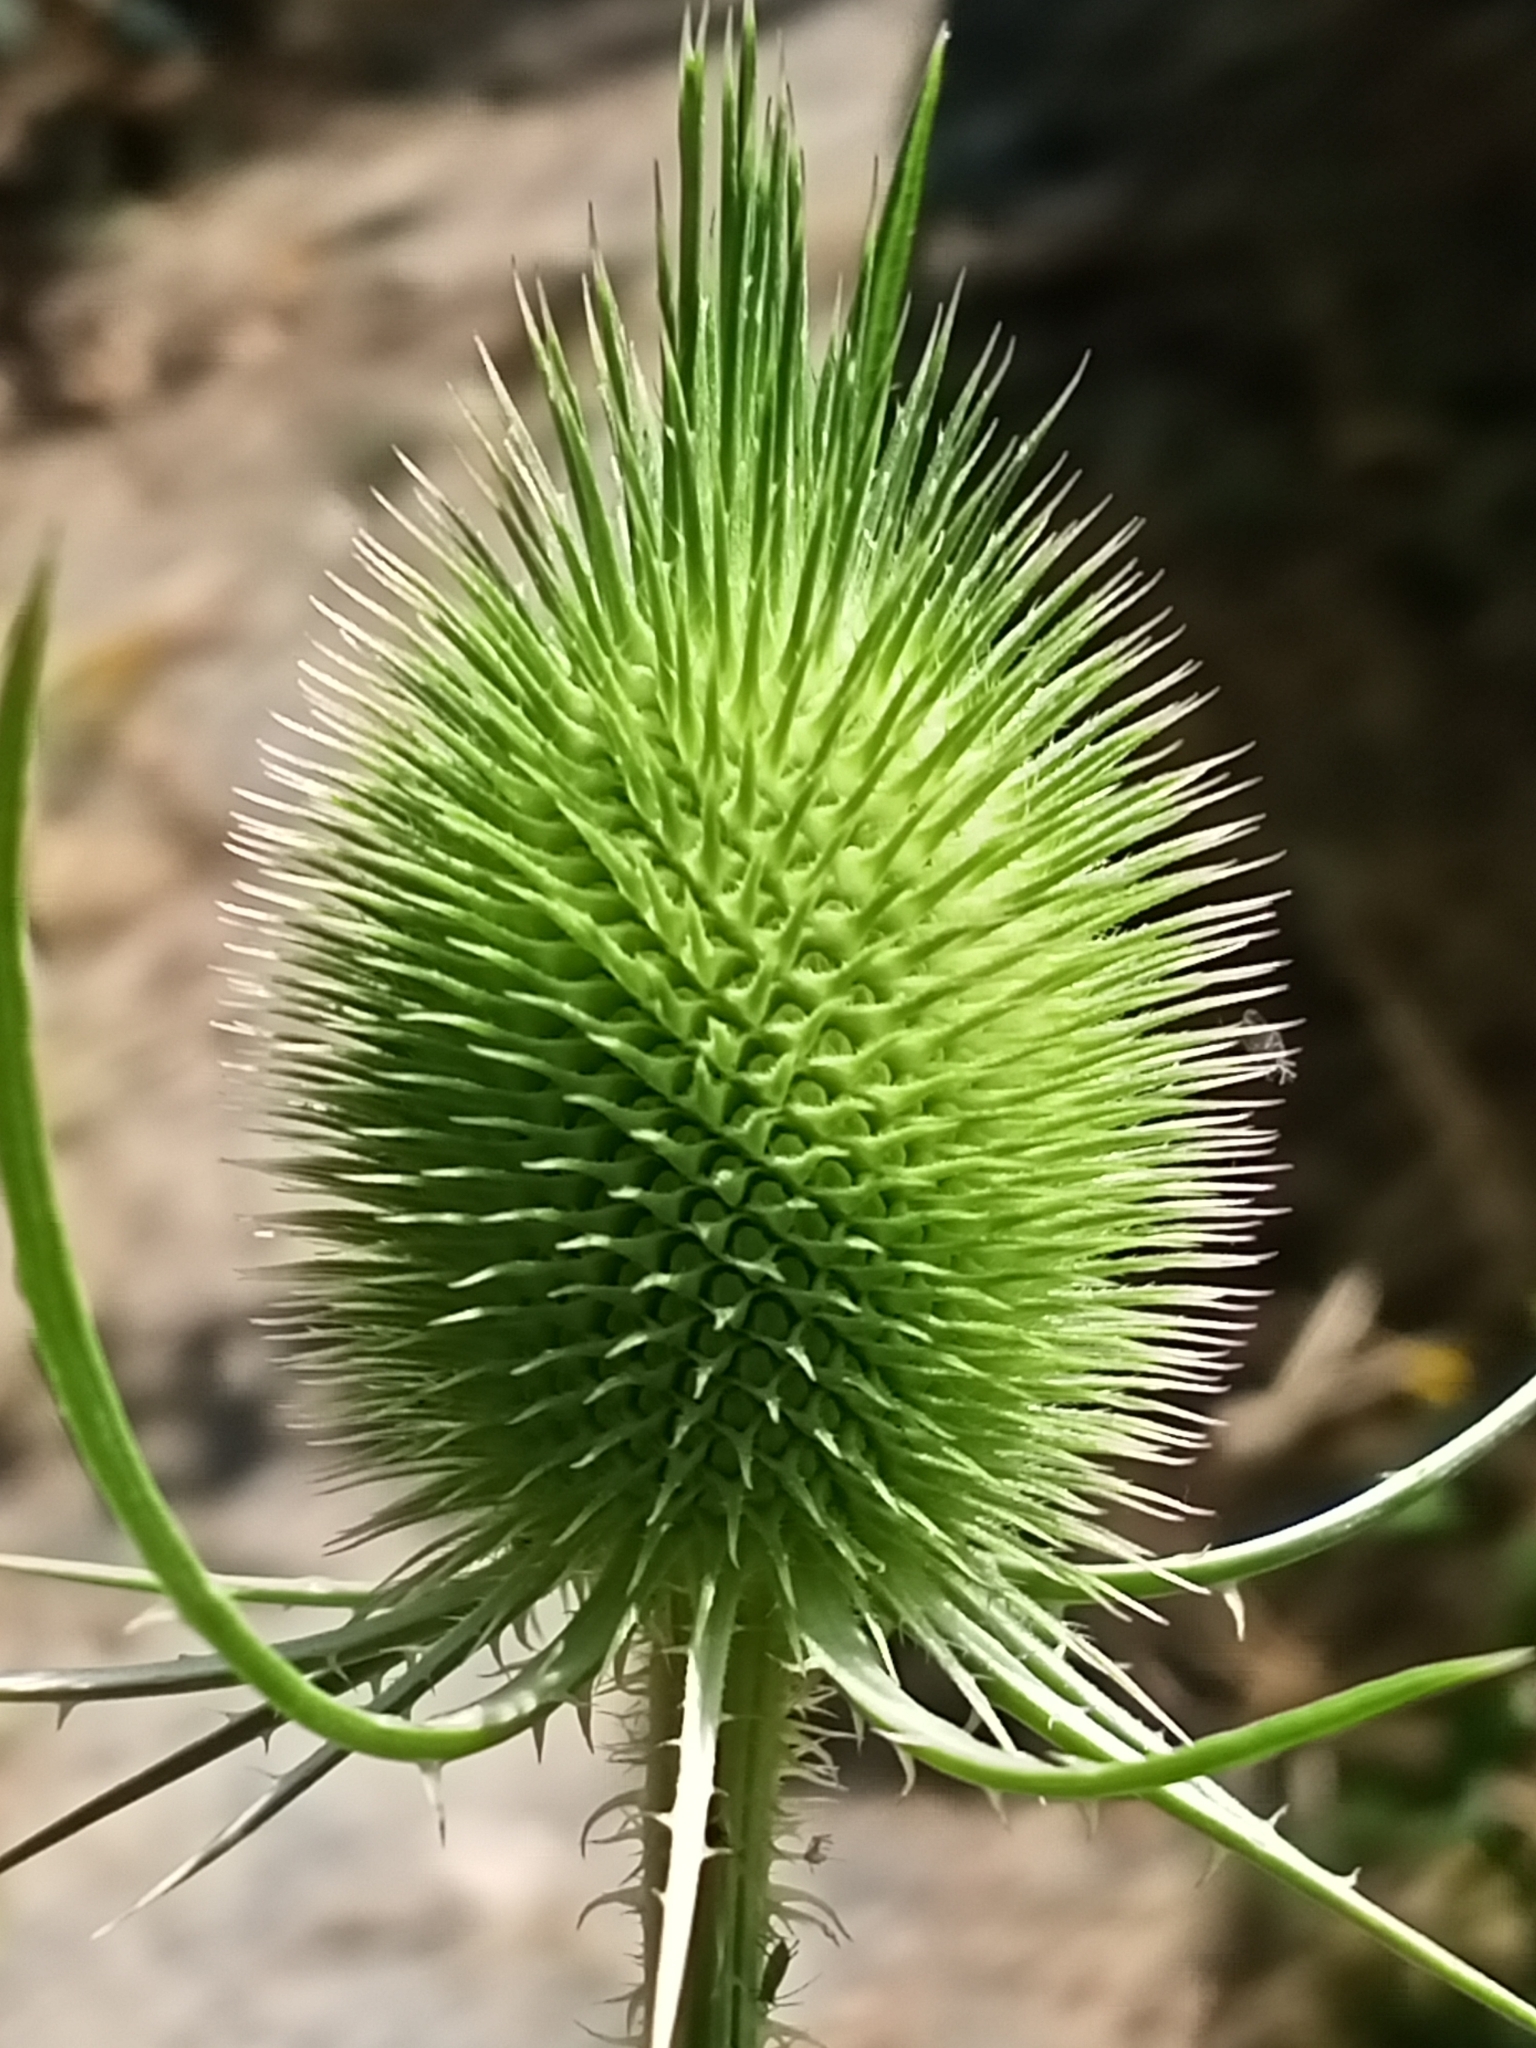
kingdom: Plantae
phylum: Tracheophyta
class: Magnoliopsida
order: Dipsacales
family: Caprifoliaceae
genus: Dipsacus
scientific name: Dipsacus fullonum
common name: Teasel
